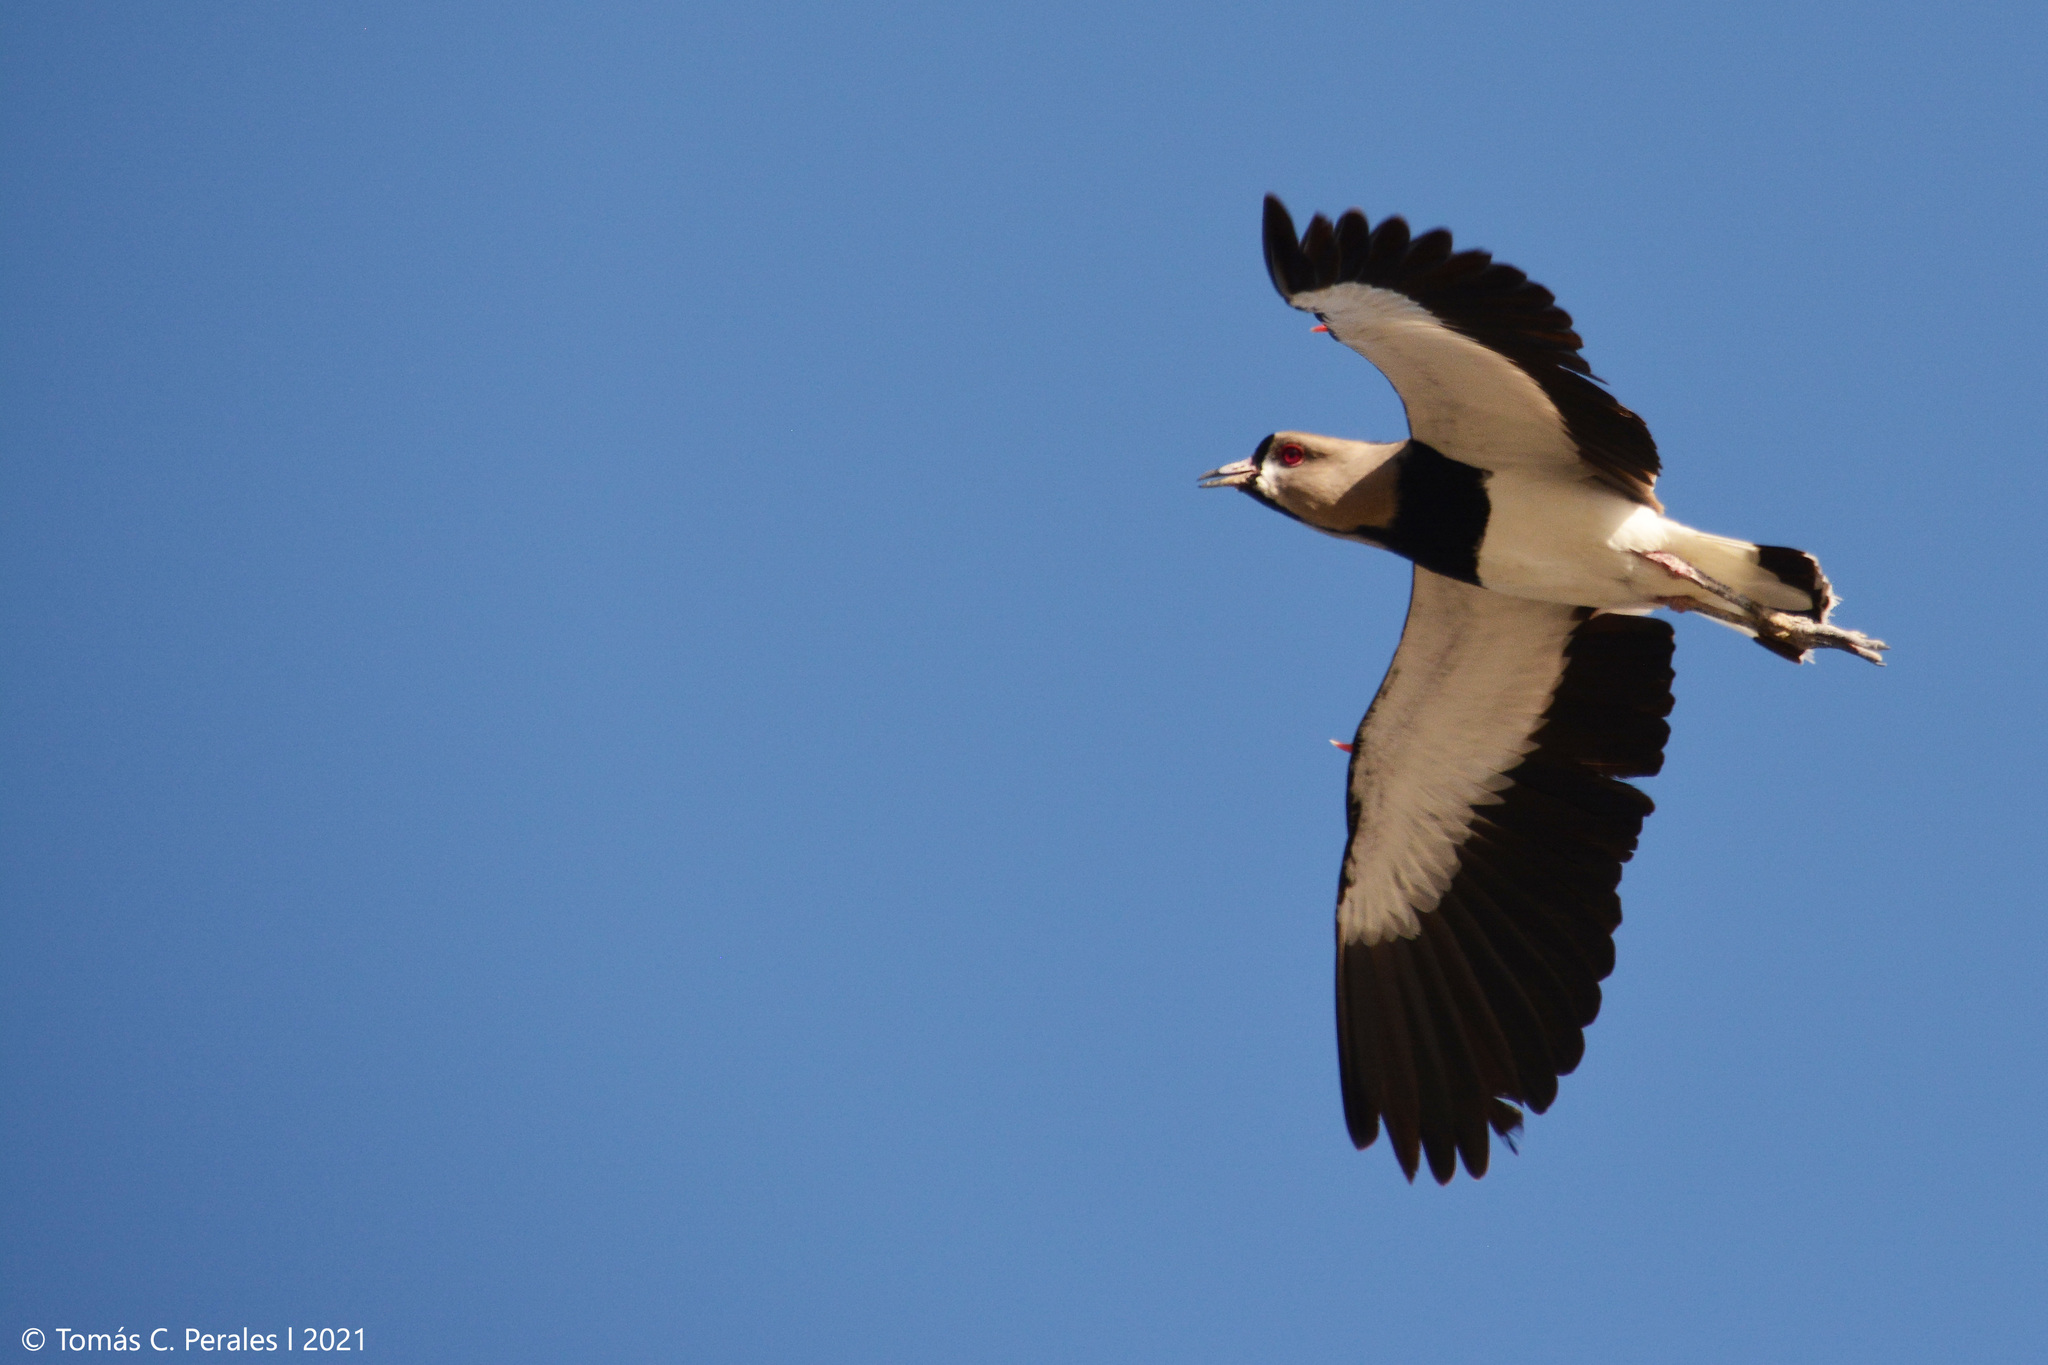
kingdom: Animalia
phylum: Chordata
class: Aves
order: Charadriiformes
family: Charadriidae
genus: Vanellus
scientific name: Vanellus chilensis
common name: Southern lapwing
